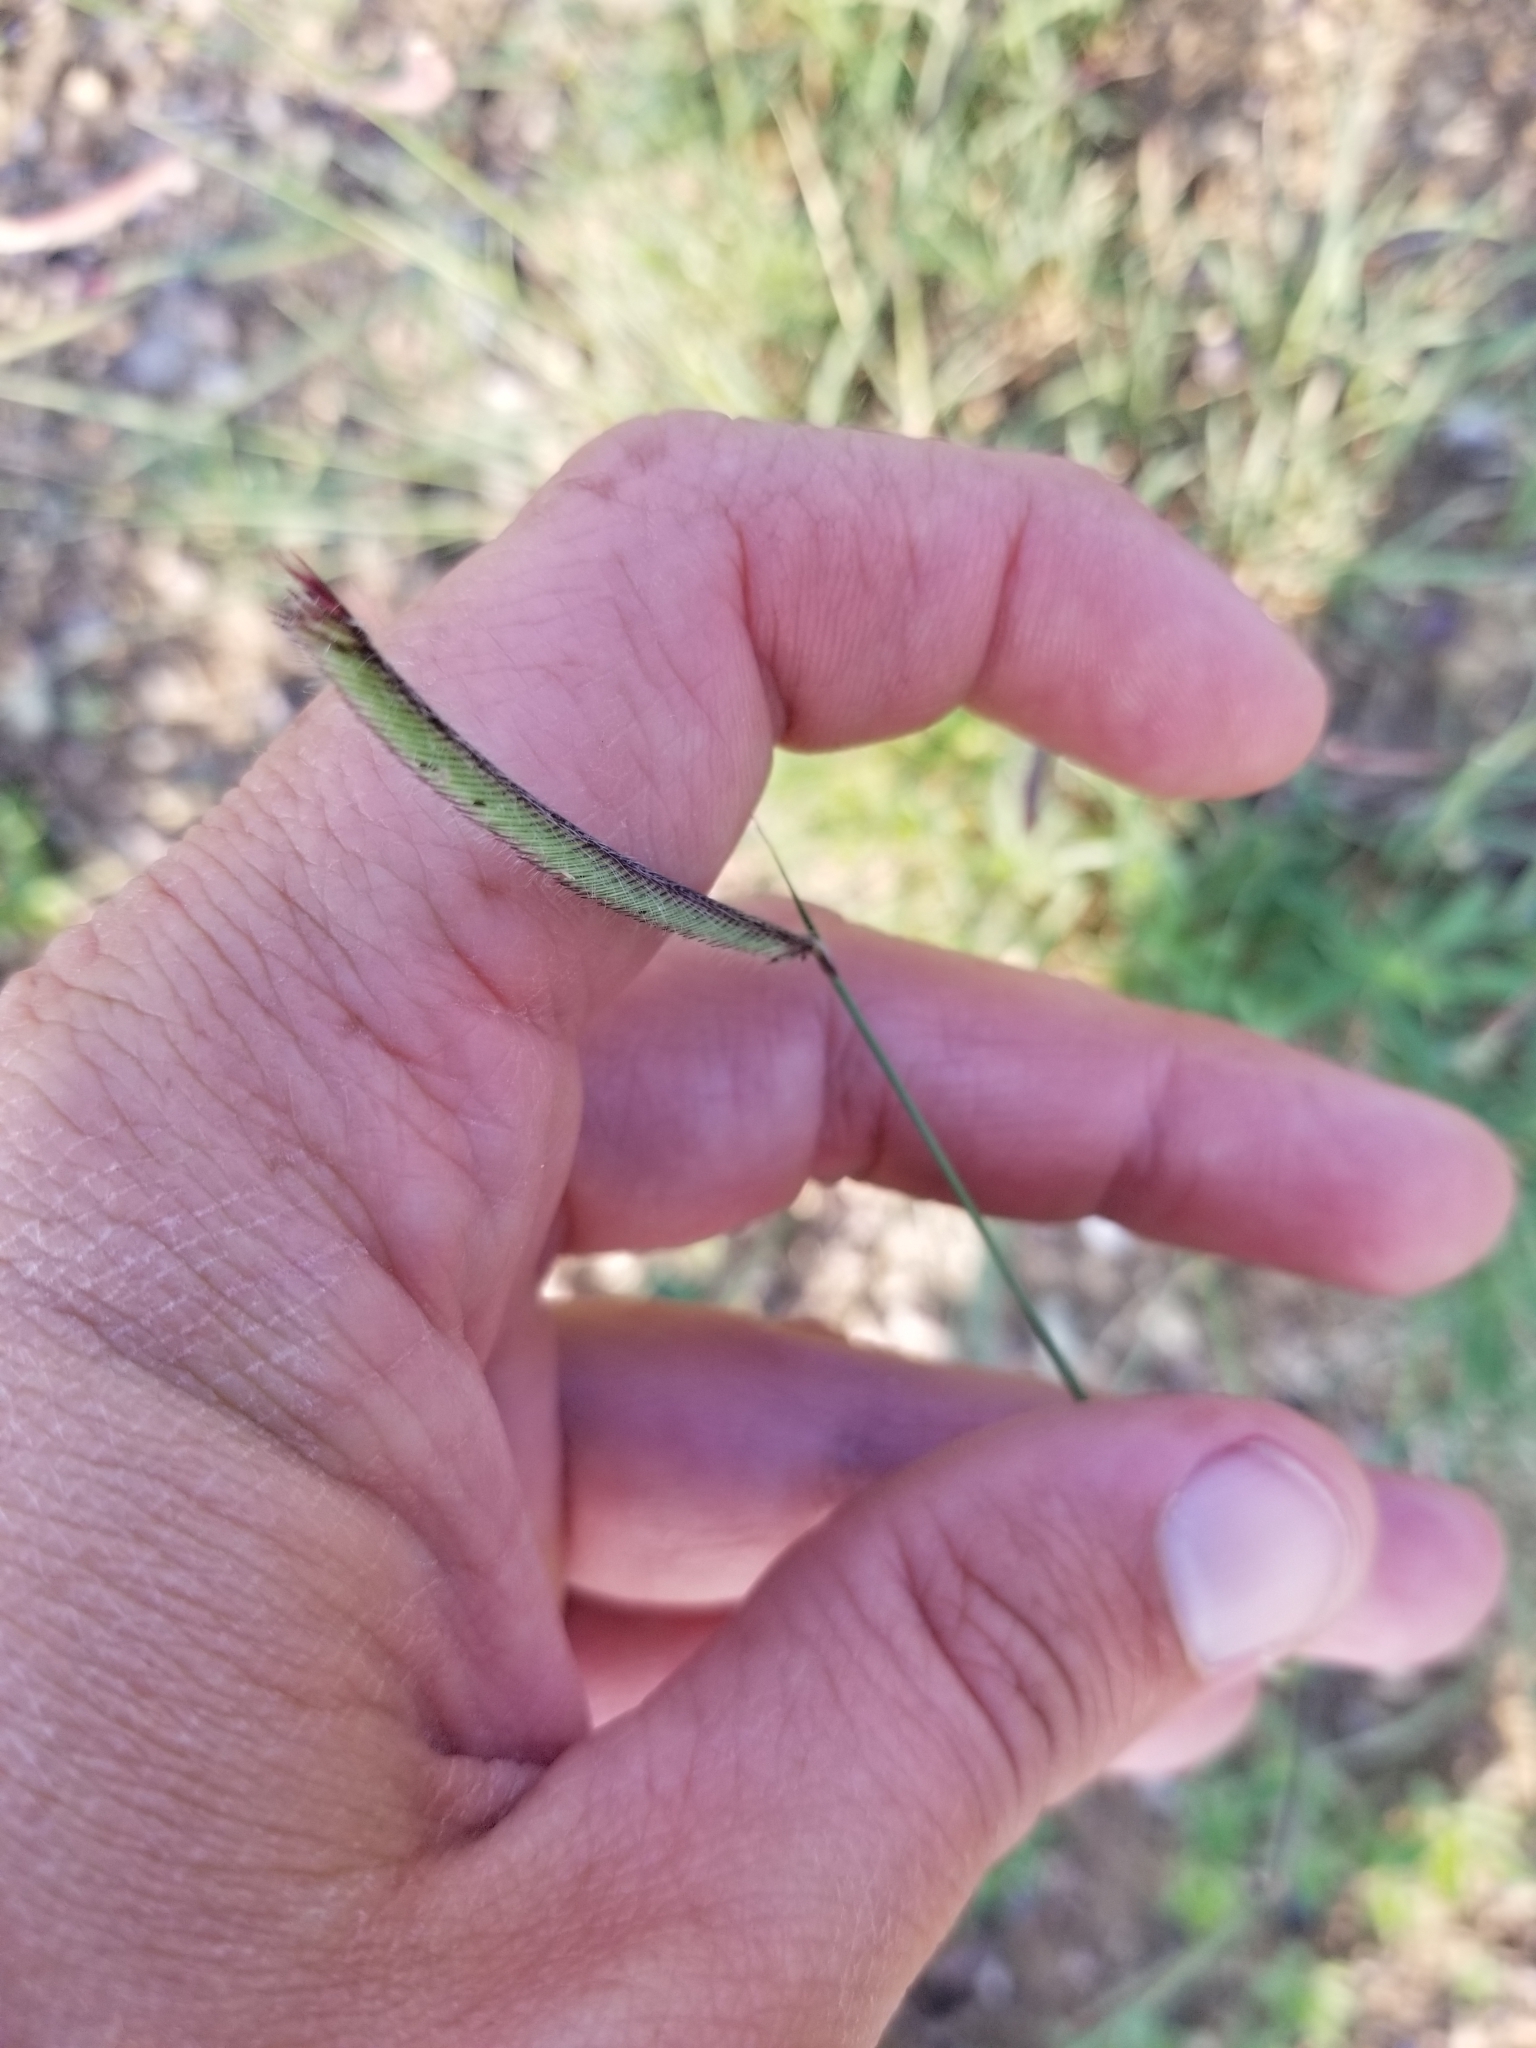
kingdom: Plantae
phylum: Tracheophyta
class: Liliopsida
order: Poales
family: Poaceae
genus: Bouteloua
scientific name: Bouteloua gracilis
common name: Blue grama
